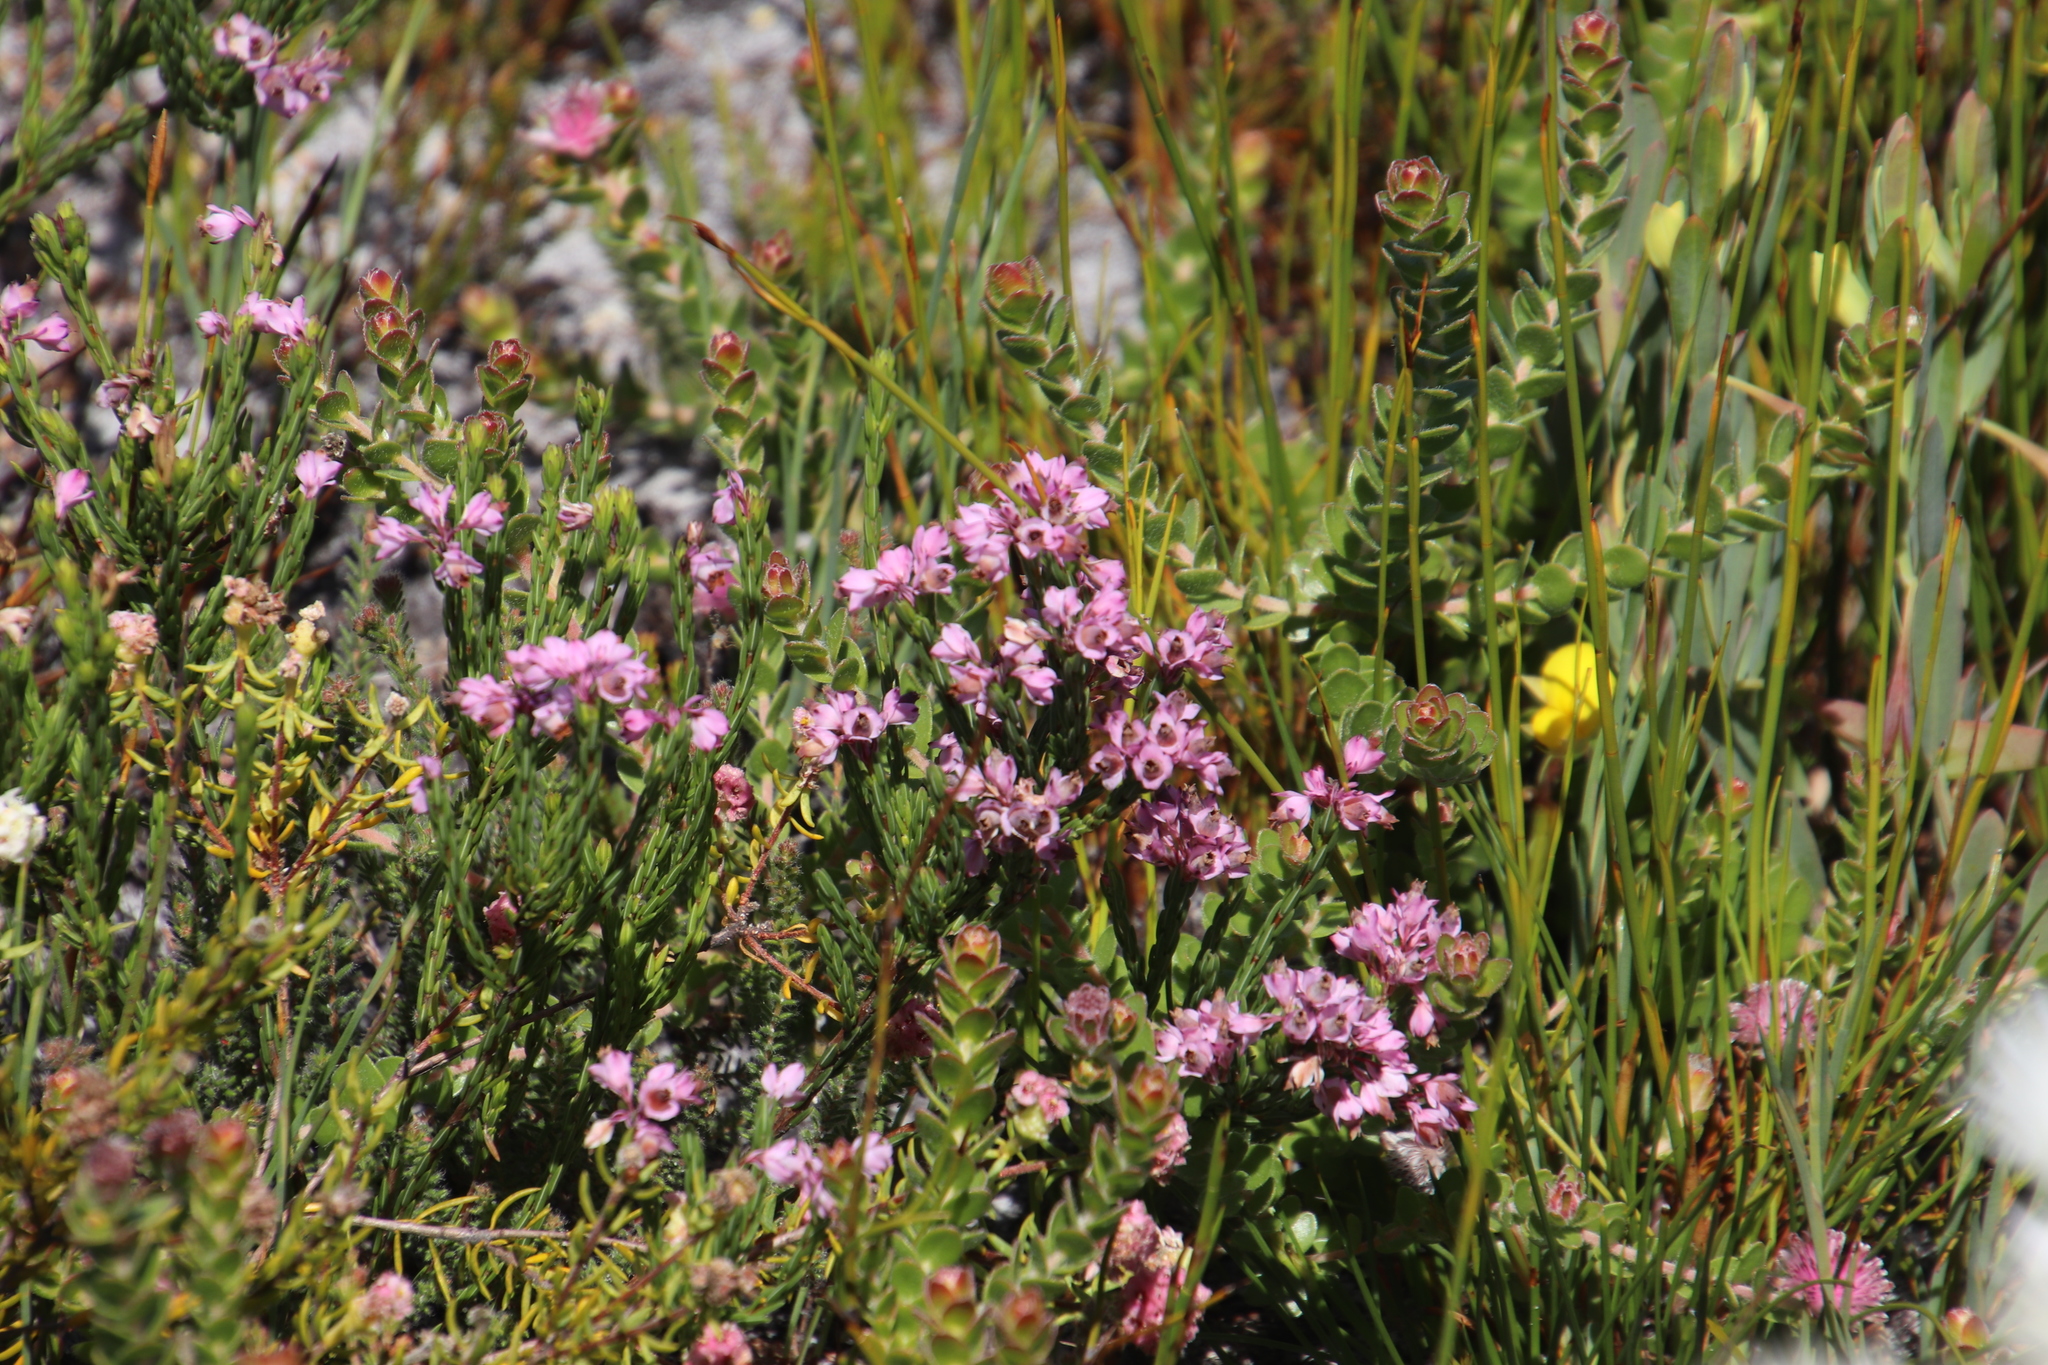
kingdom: Plantae
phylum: Tracheophyta
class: Magnoliopsida
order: Ericales
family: Ericaceae
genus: Erica
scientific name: Erica corifolia
